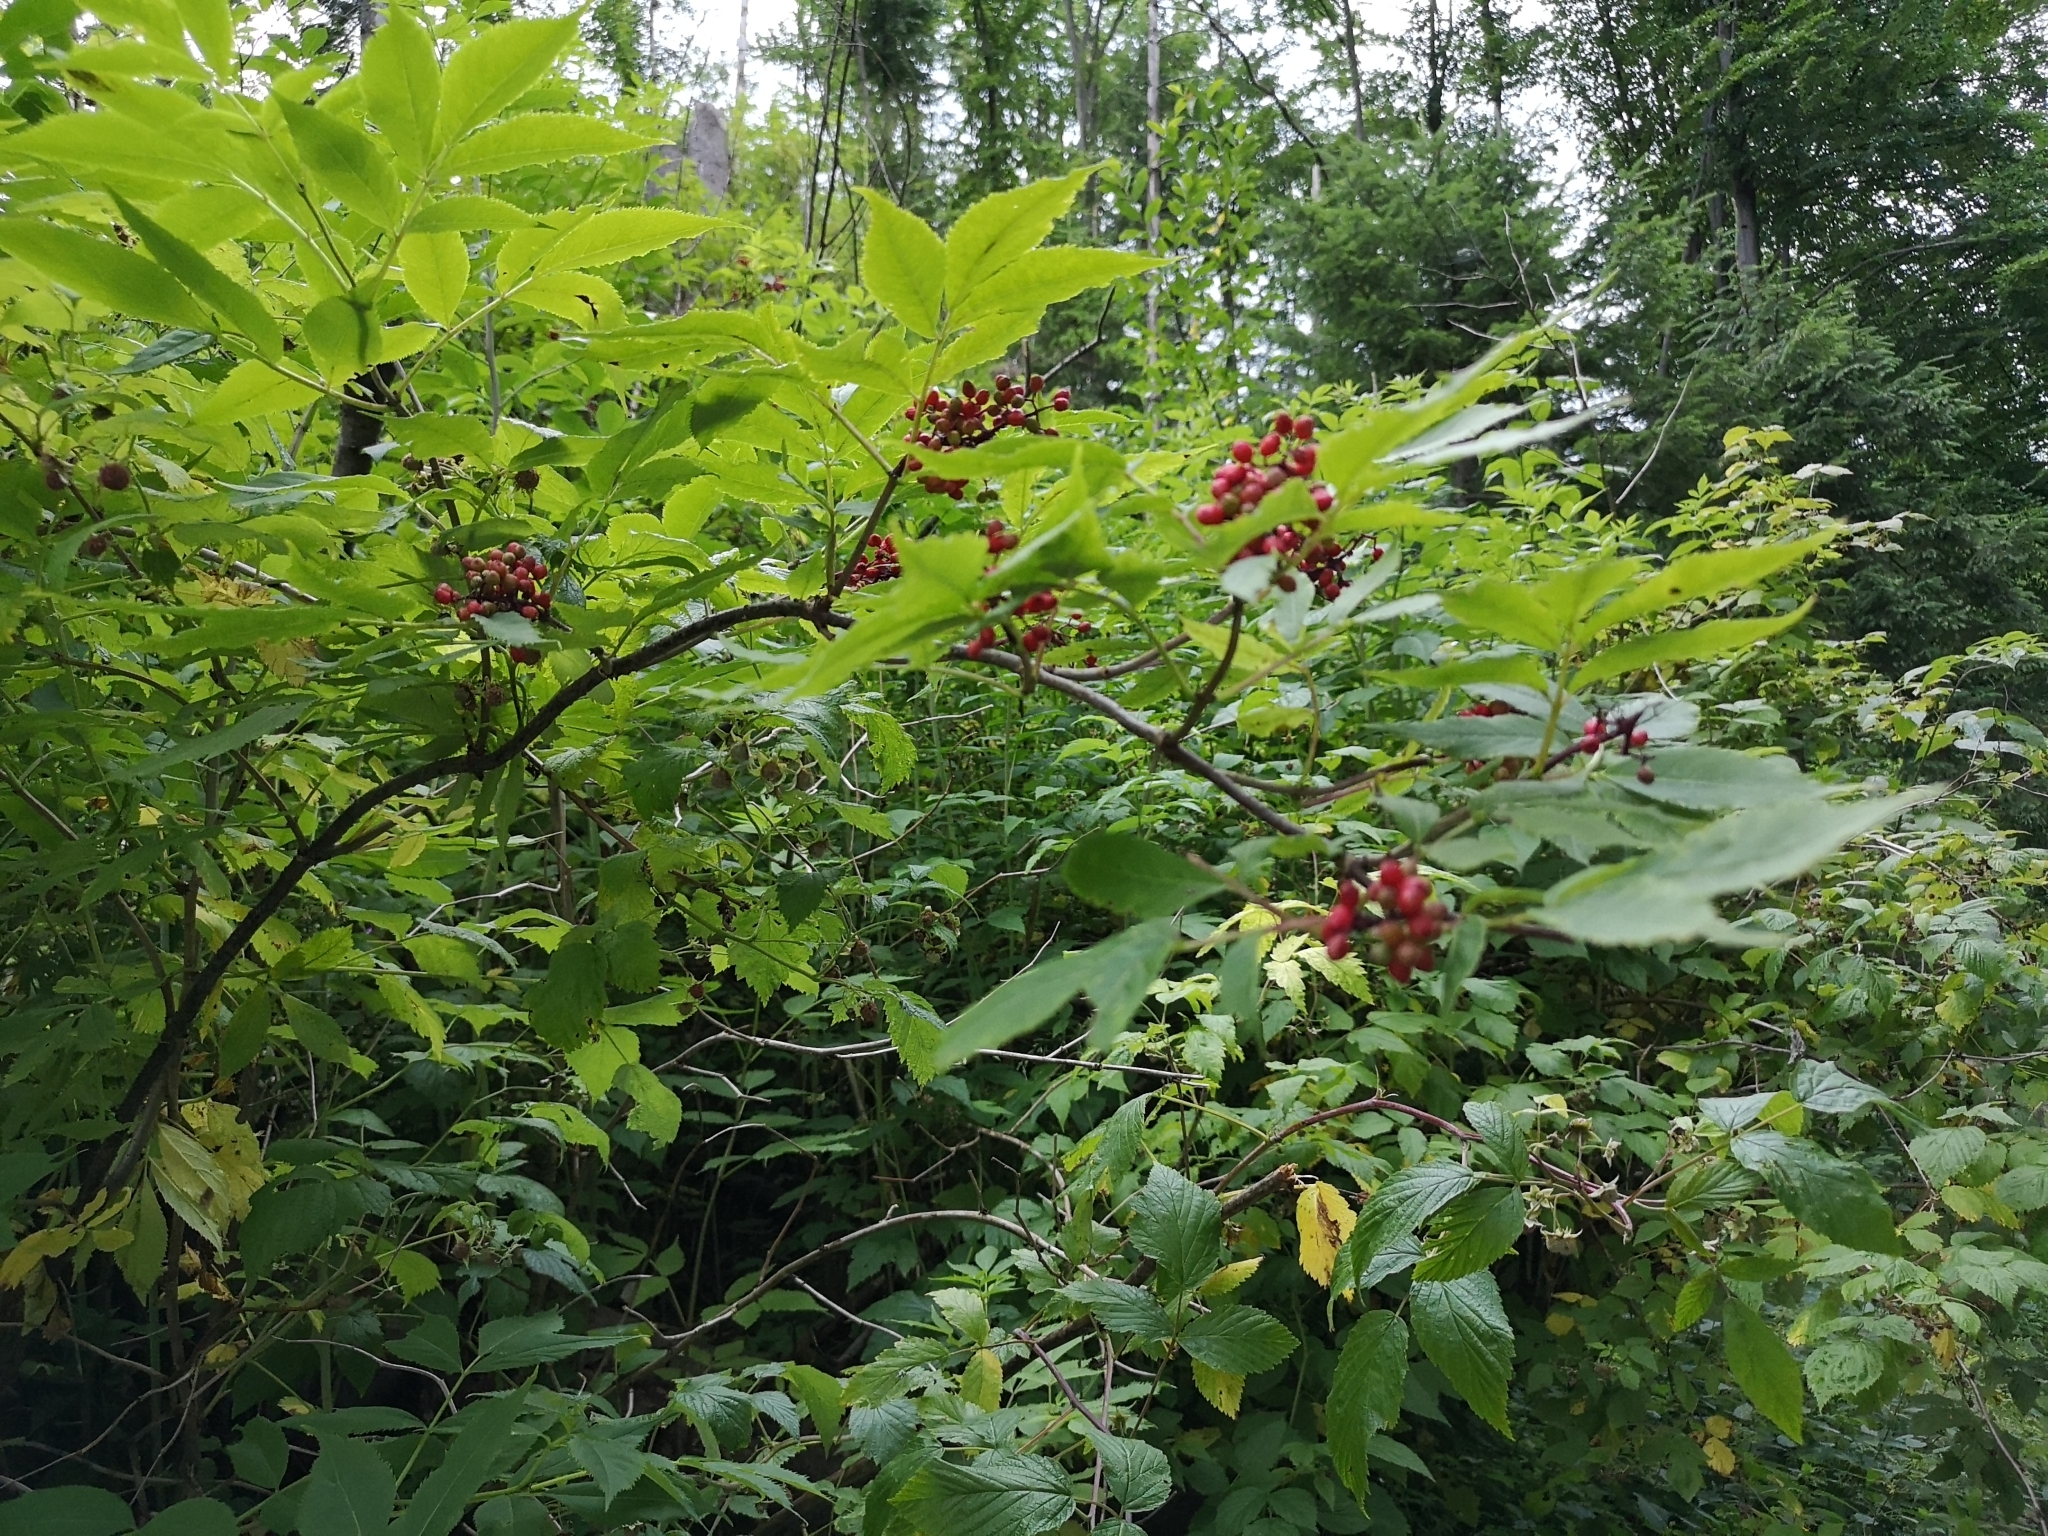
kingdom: Plantae
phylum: Tracheophyta
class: Magnoliopsida
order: Dipsacales
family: Viburnaceae
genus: Sambucus
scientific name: Sambucus racemosa
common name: Red-berried elder
